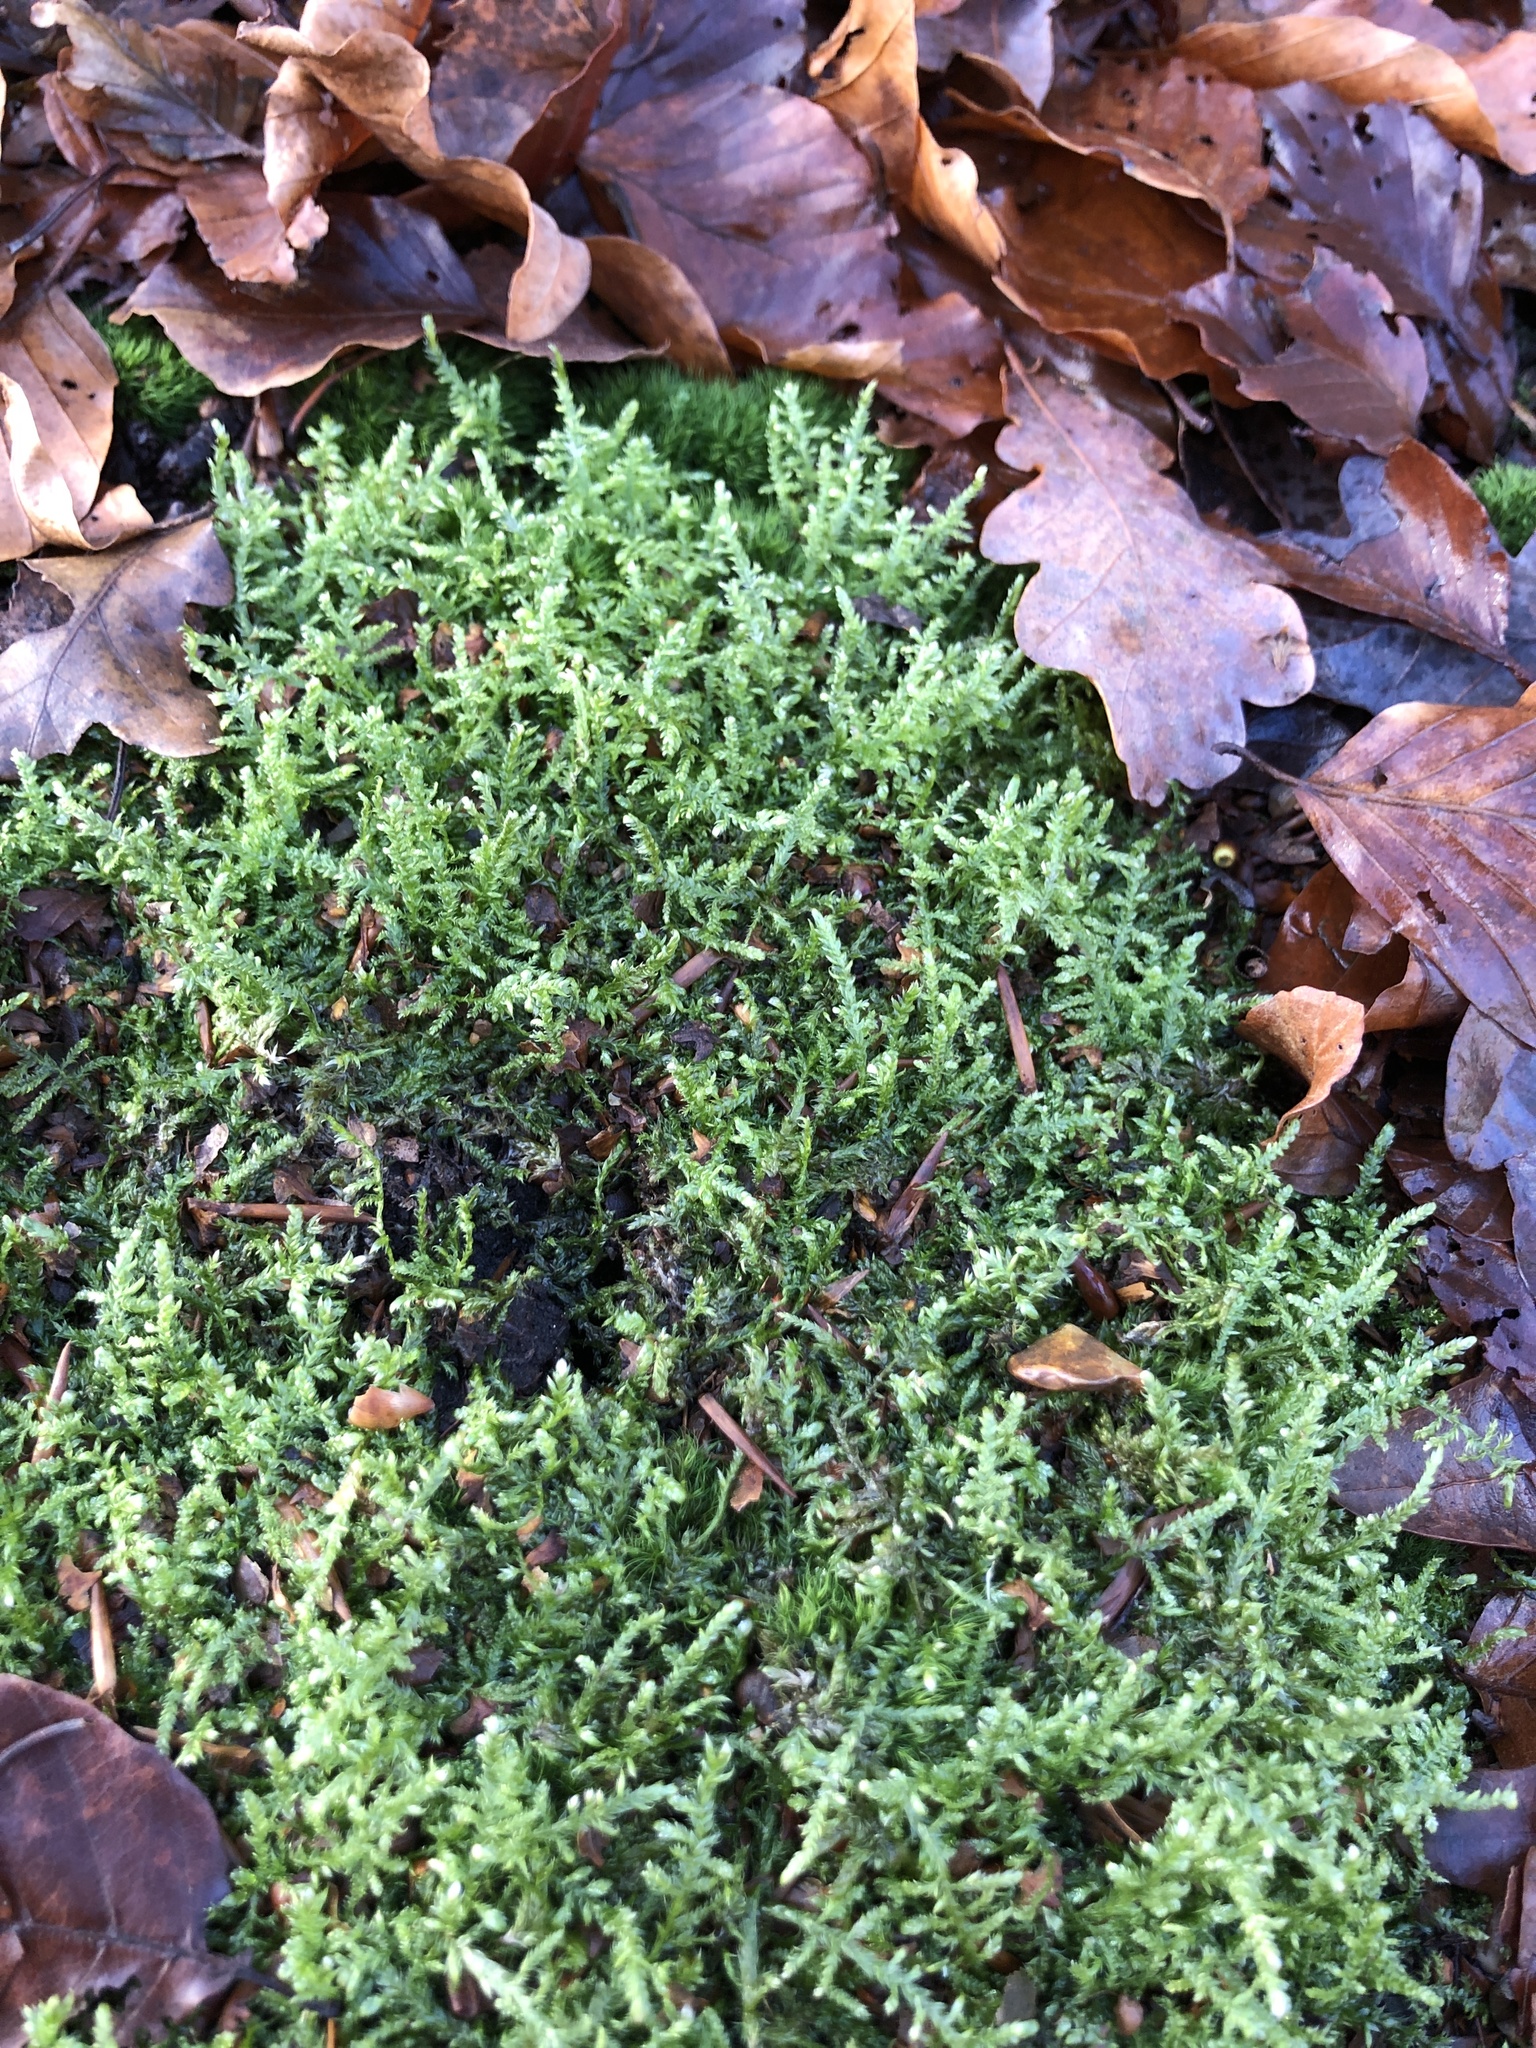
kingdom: Plantae
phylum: Bryophyta
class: Bryopsida
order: Hypnales
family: Hypnaceae
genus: Hypnum
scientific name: Hypnum jutlandicum
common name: Heath plait-moss
